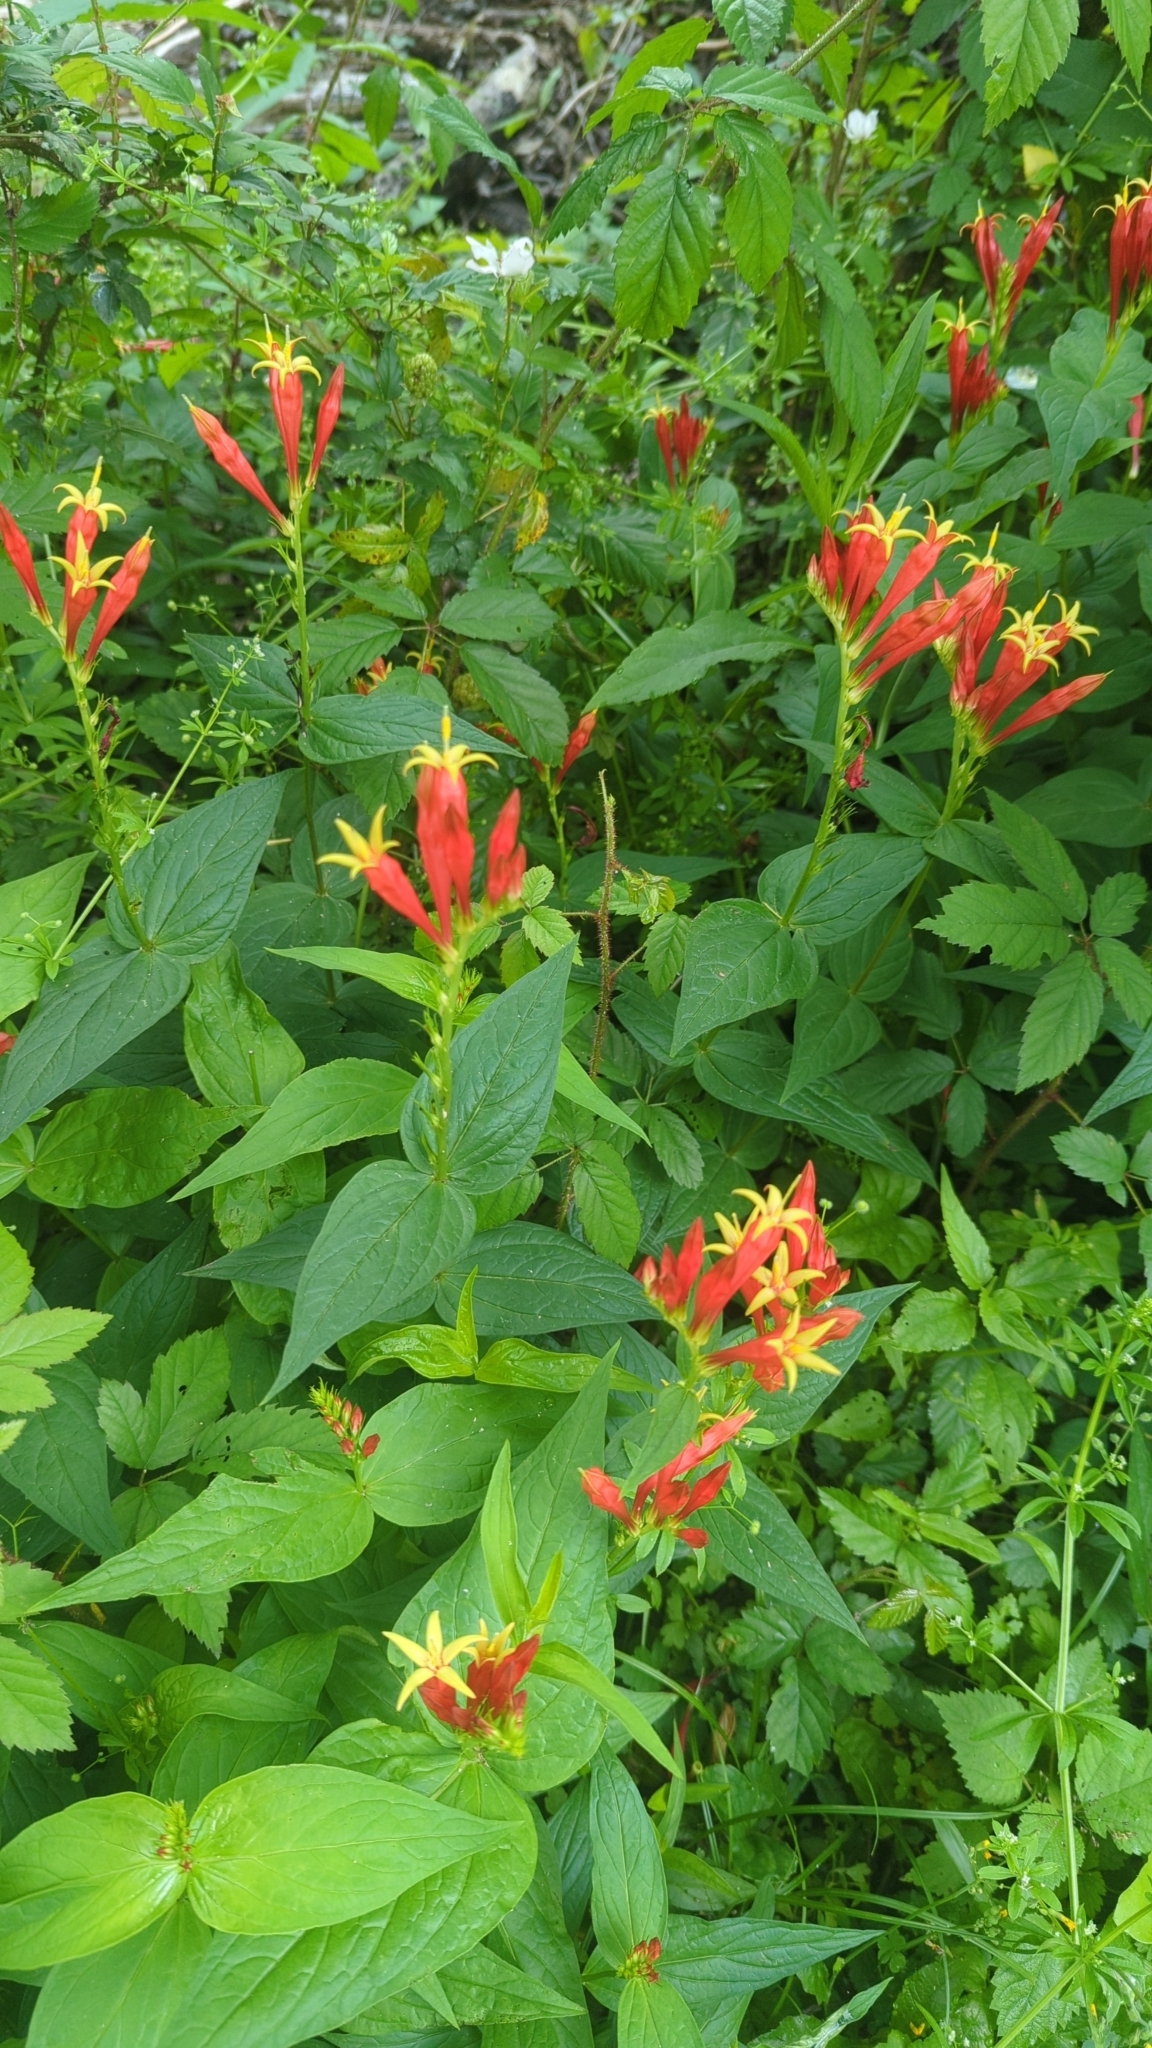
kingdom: Plantae
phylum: Tracheophyta
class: Magnoliopsida
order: Gentianales
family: Loganiaceae
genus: Spigelia
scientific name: Spigelia marilandica
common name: Indian-pink
